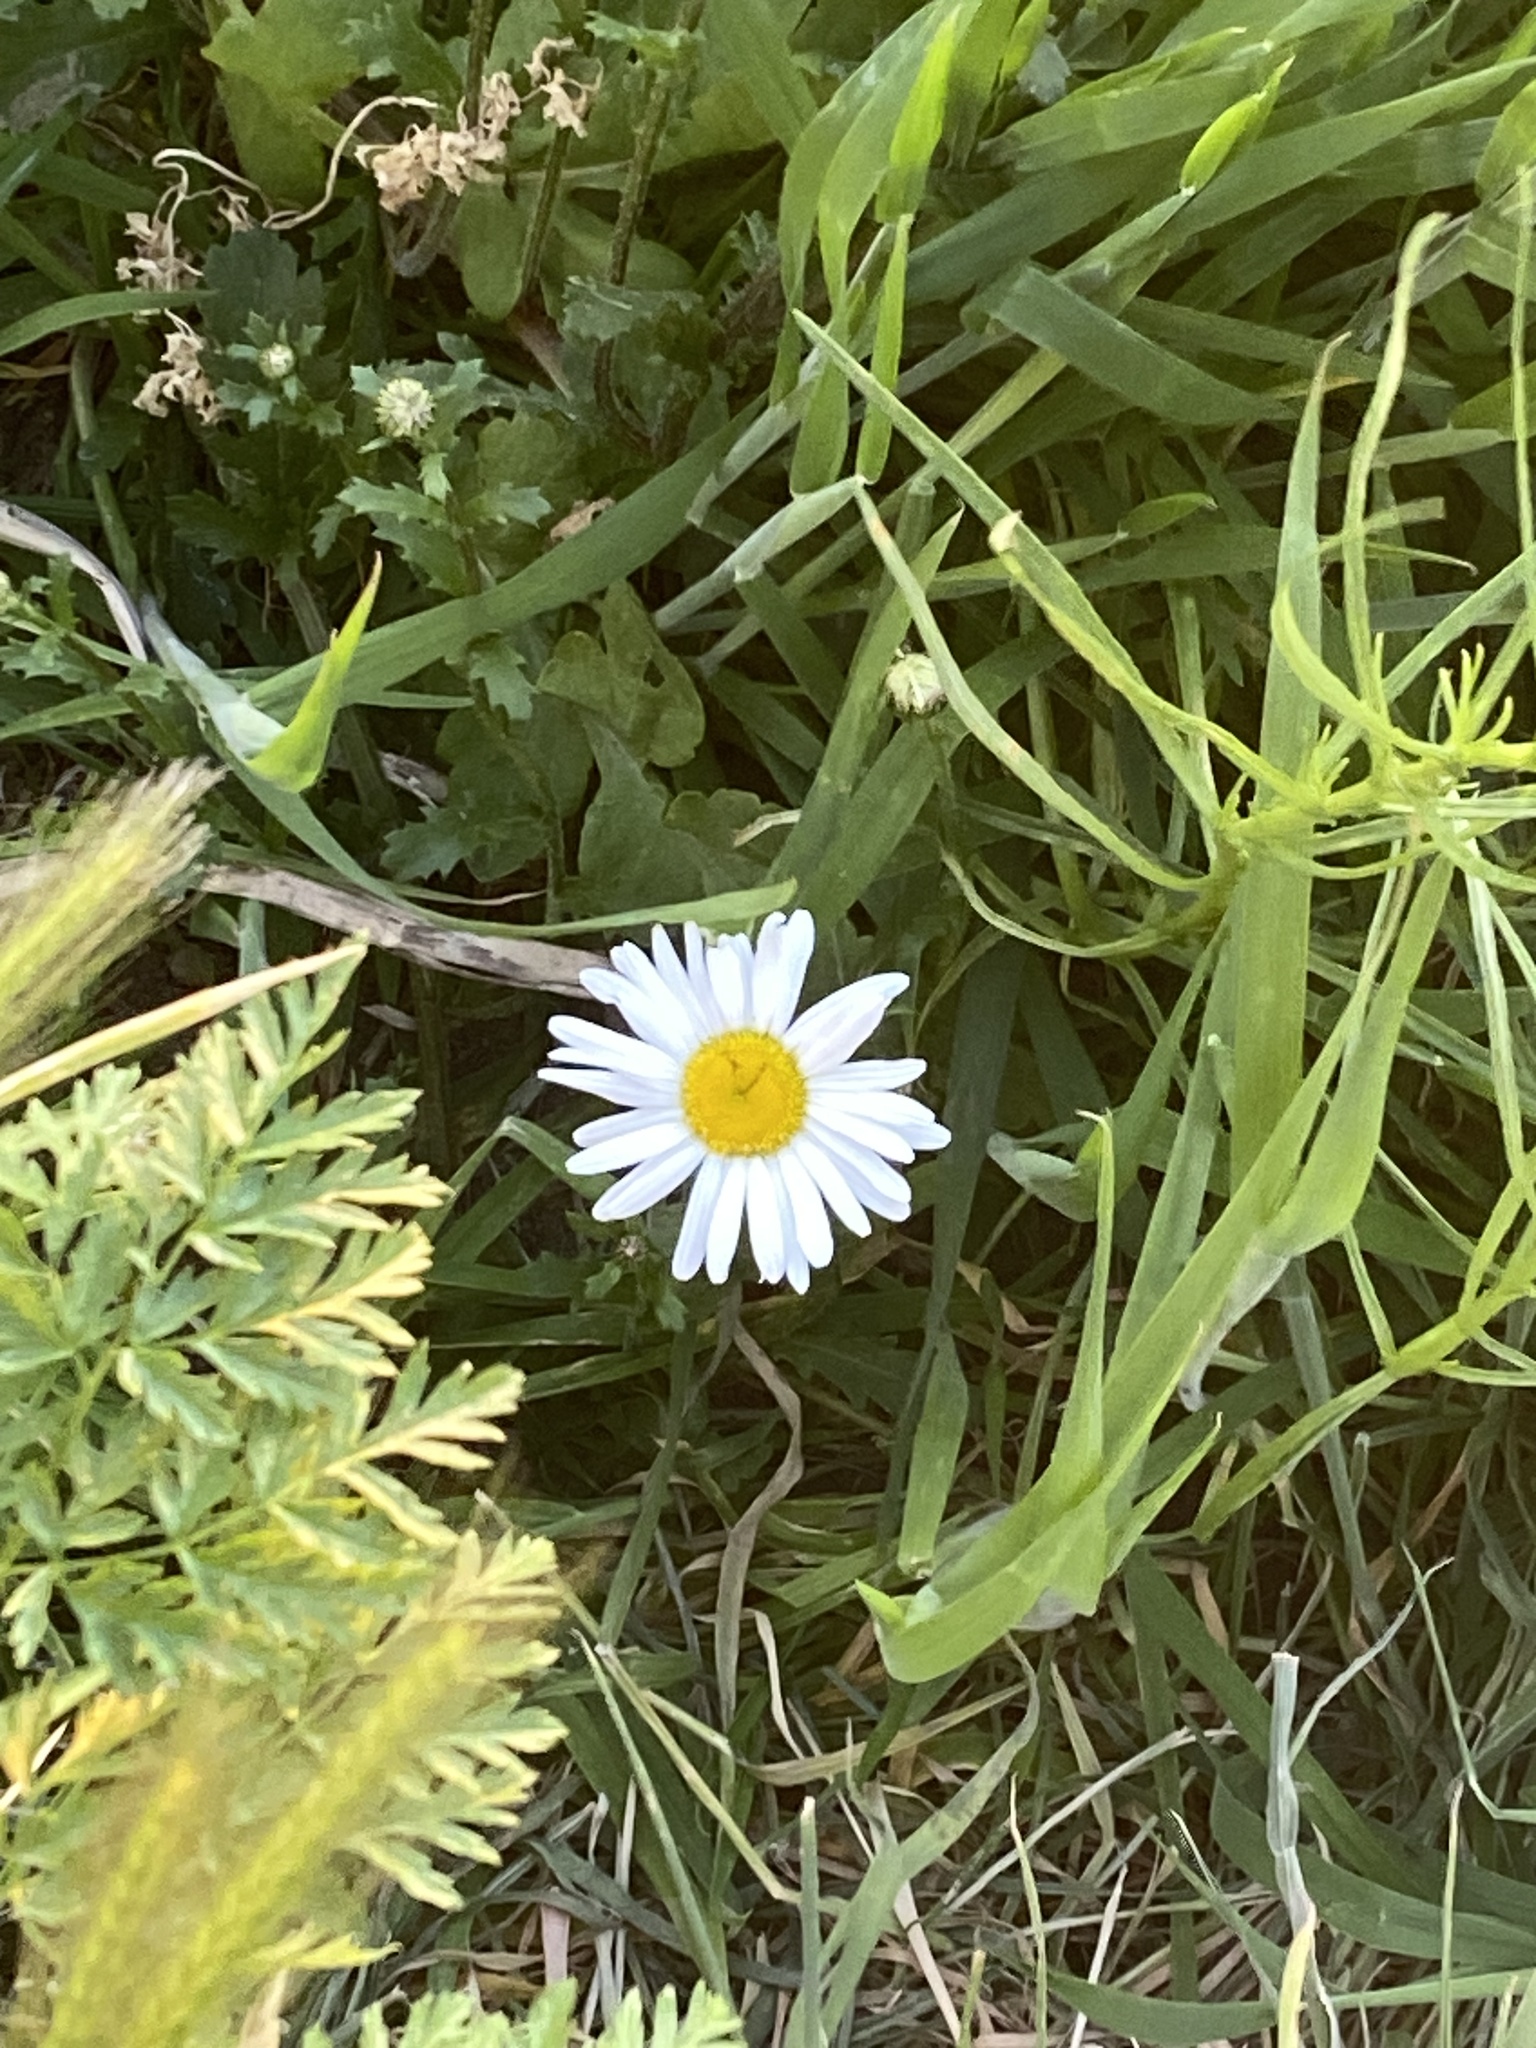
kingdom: Plantae
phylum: Tracheophyta
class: Magnoliopsida
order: Asterales
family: Asteraceae
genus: Bellis
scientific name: Bellis perennis
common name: Lawndaisy
